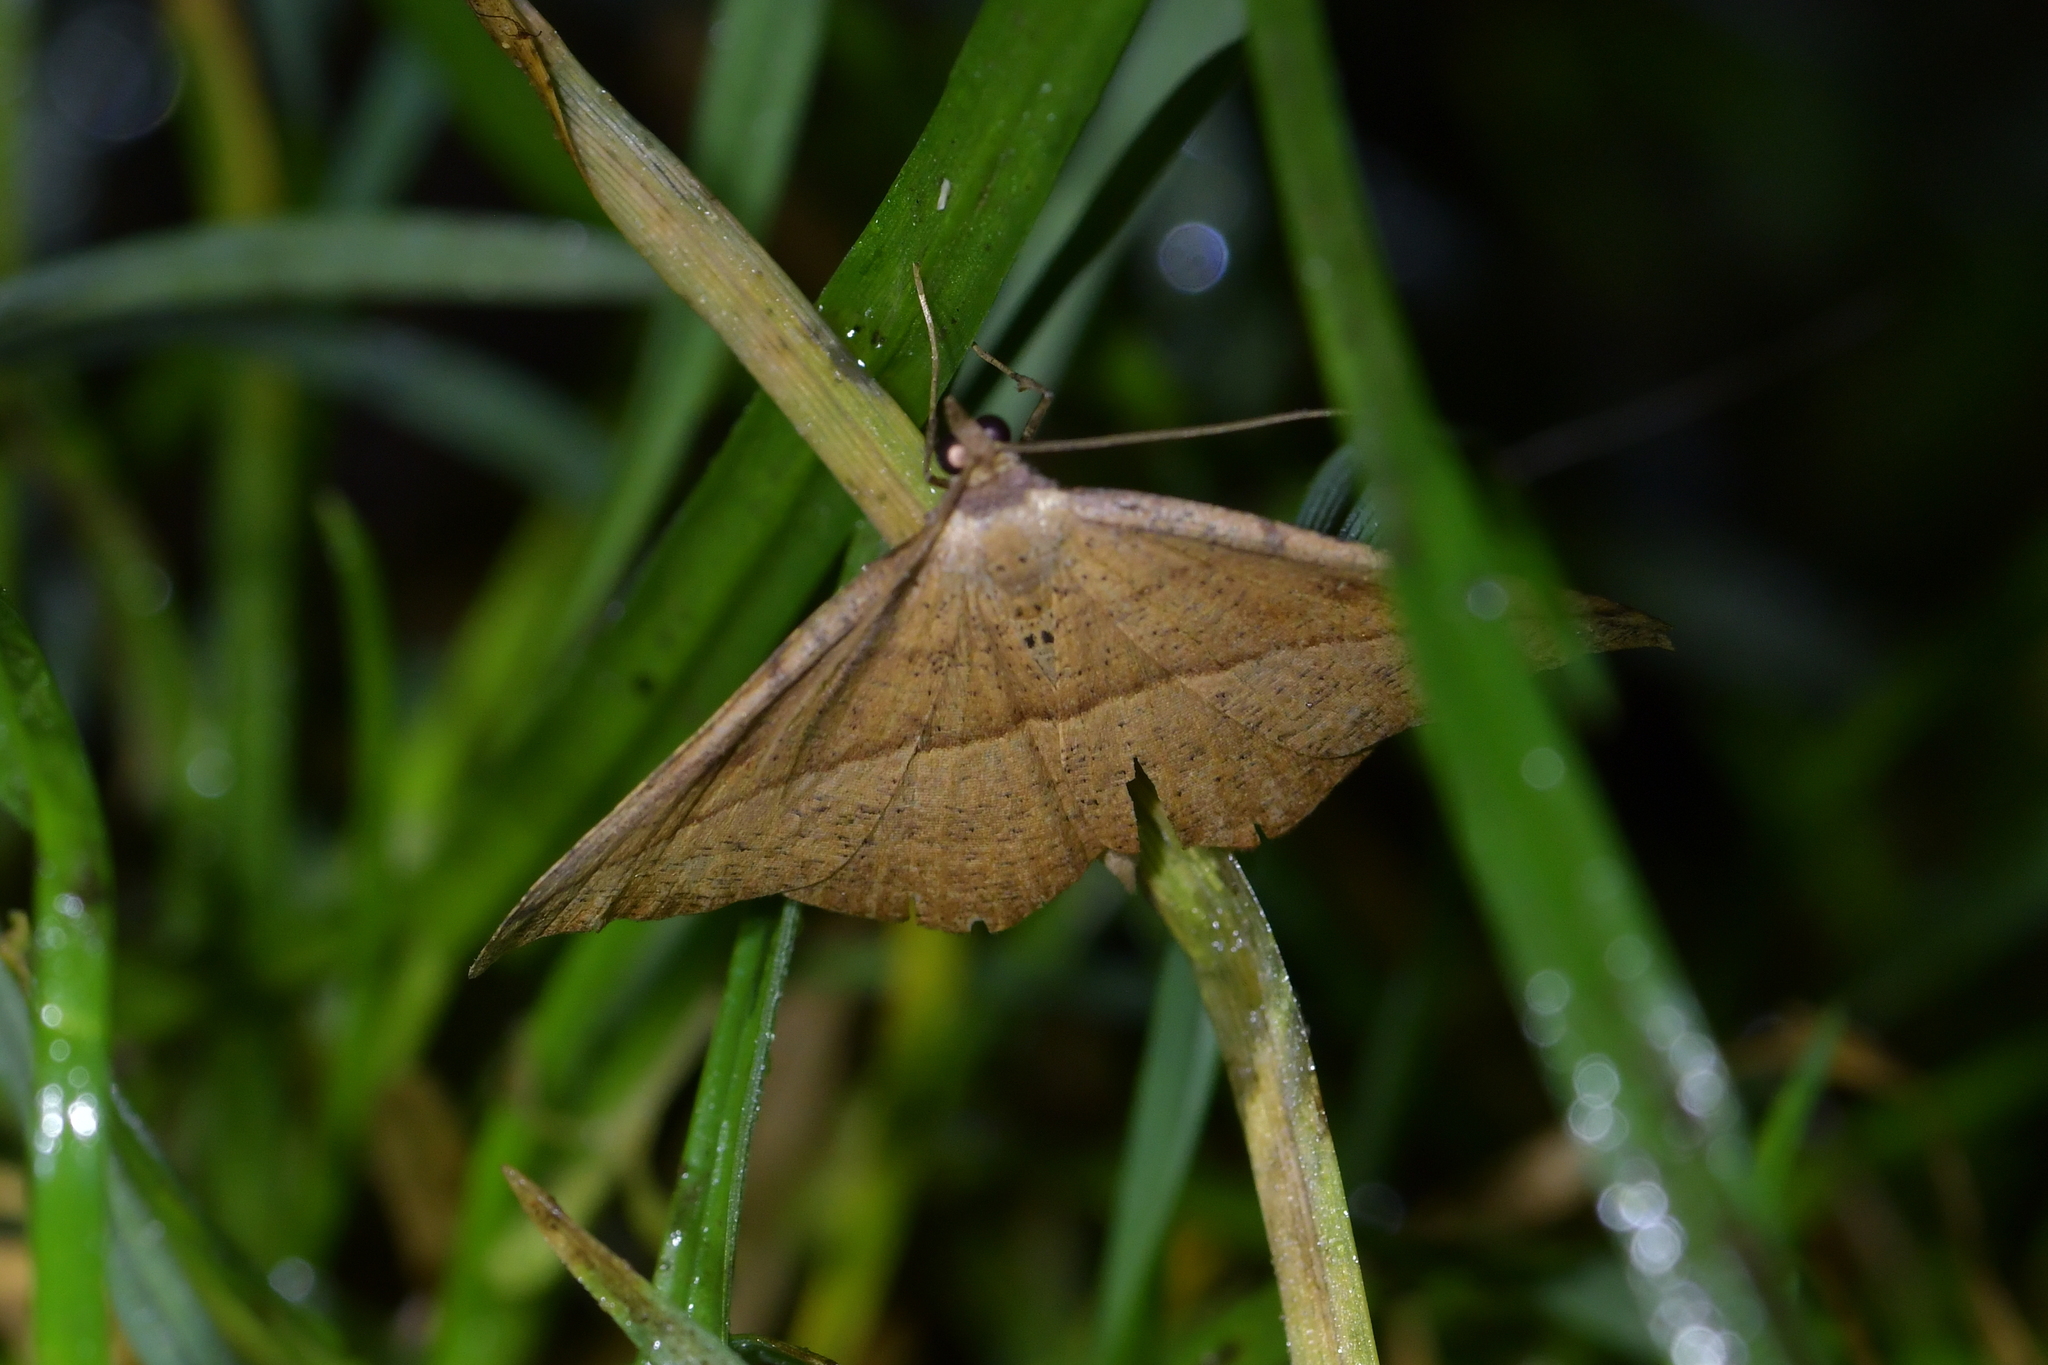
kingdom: Animalia
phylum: Arthropoda
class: Insecta
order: Lepidoptera
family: Geometridae
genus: Sarisa
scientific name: Sarisa muriferata
